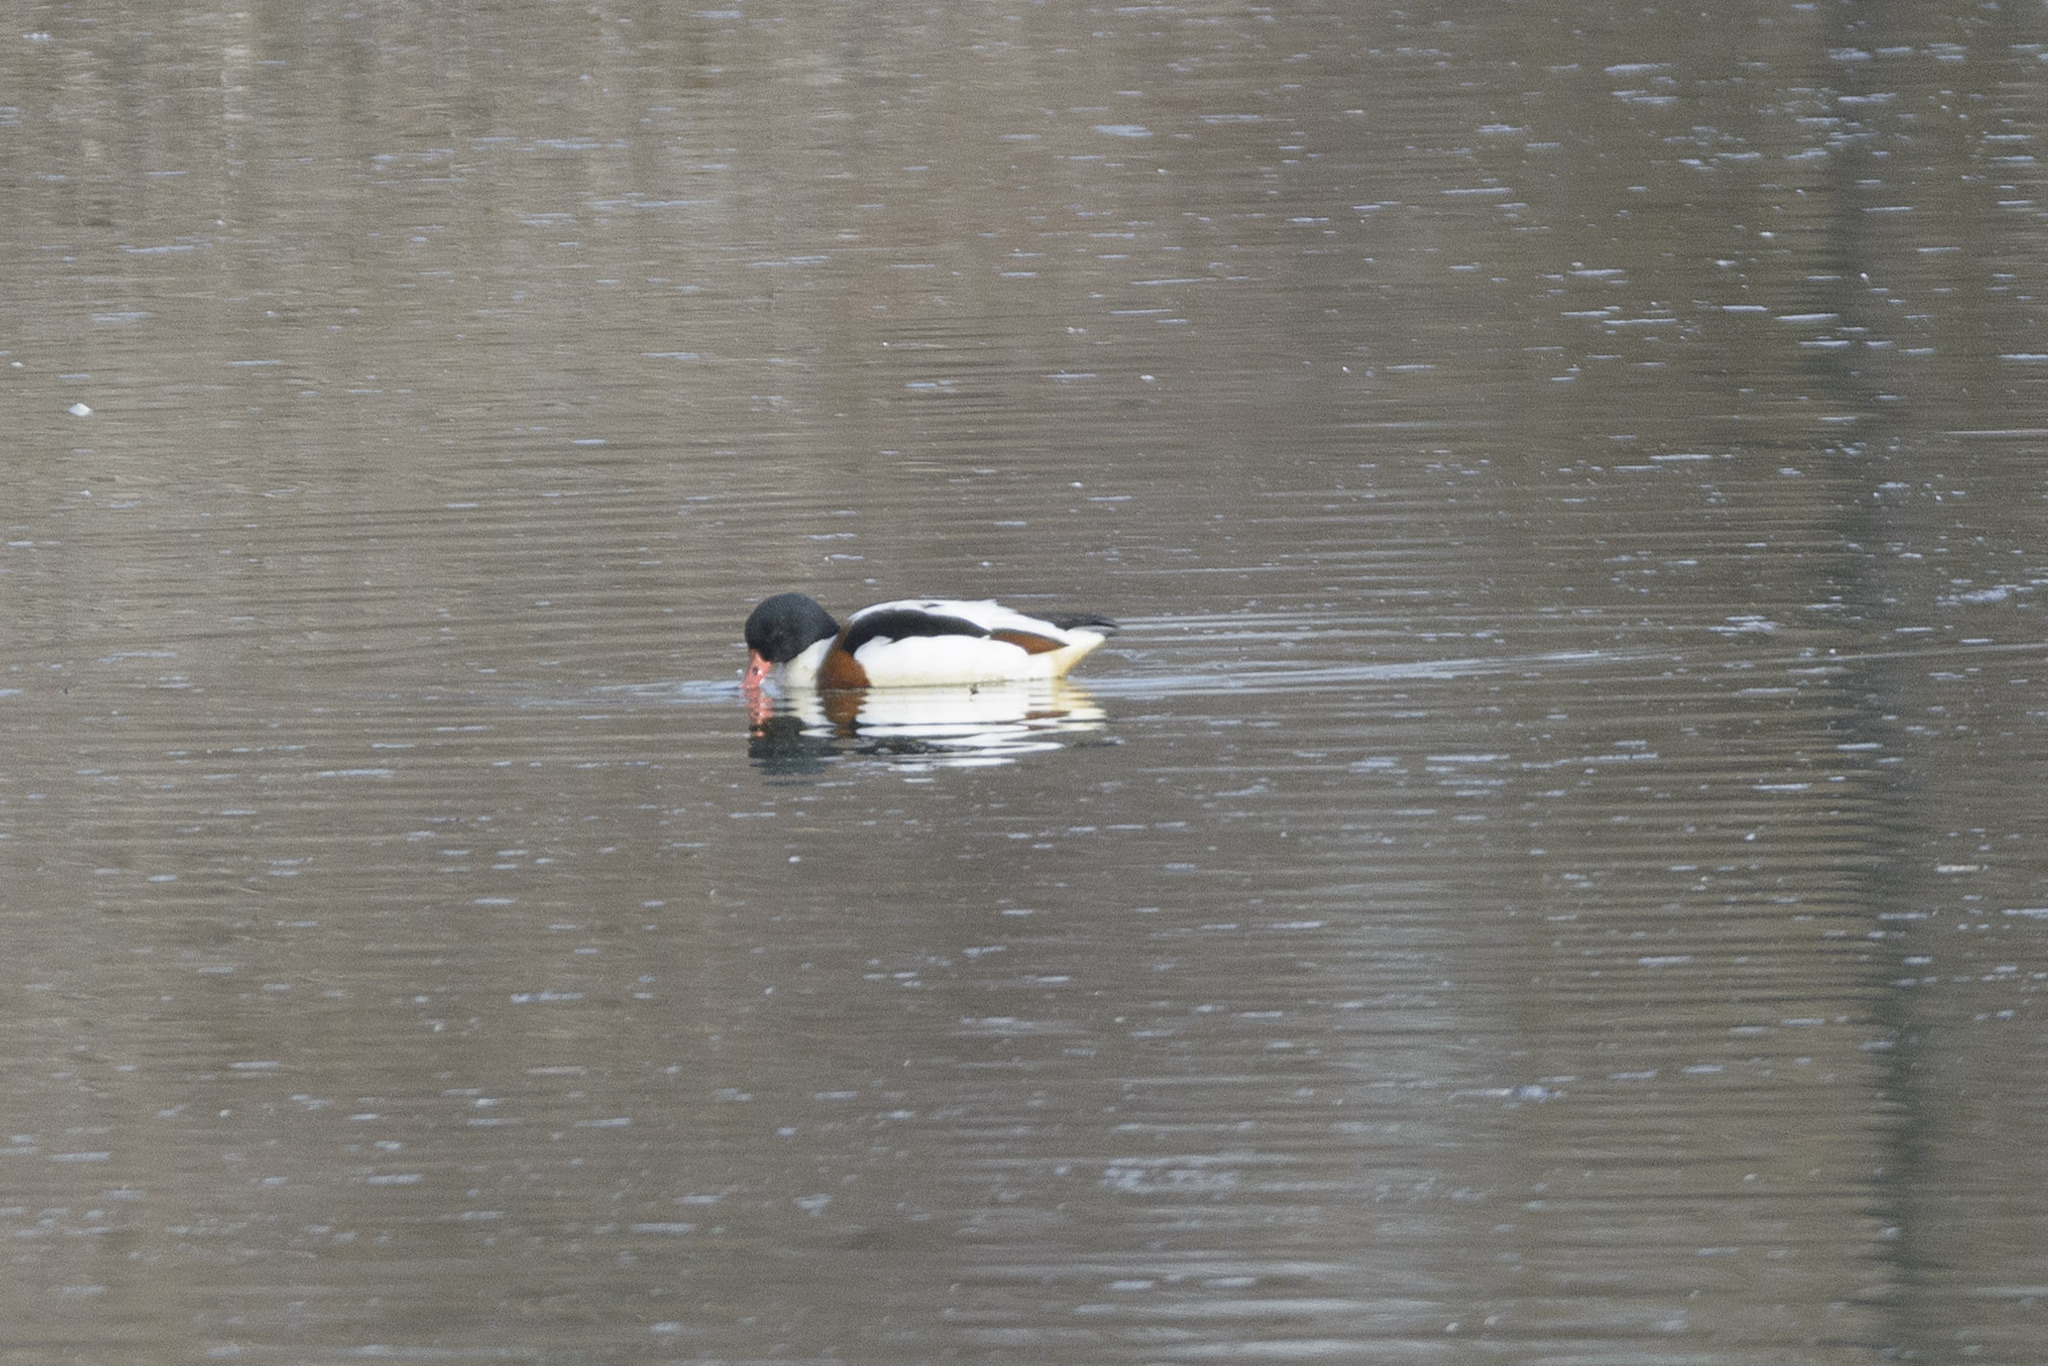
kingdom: Animalia
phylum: Chordata
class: Aves
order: Anseriformes
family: Anatidae
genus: Tadorna
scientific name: Tadorna tadorna
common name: Common shelduck
